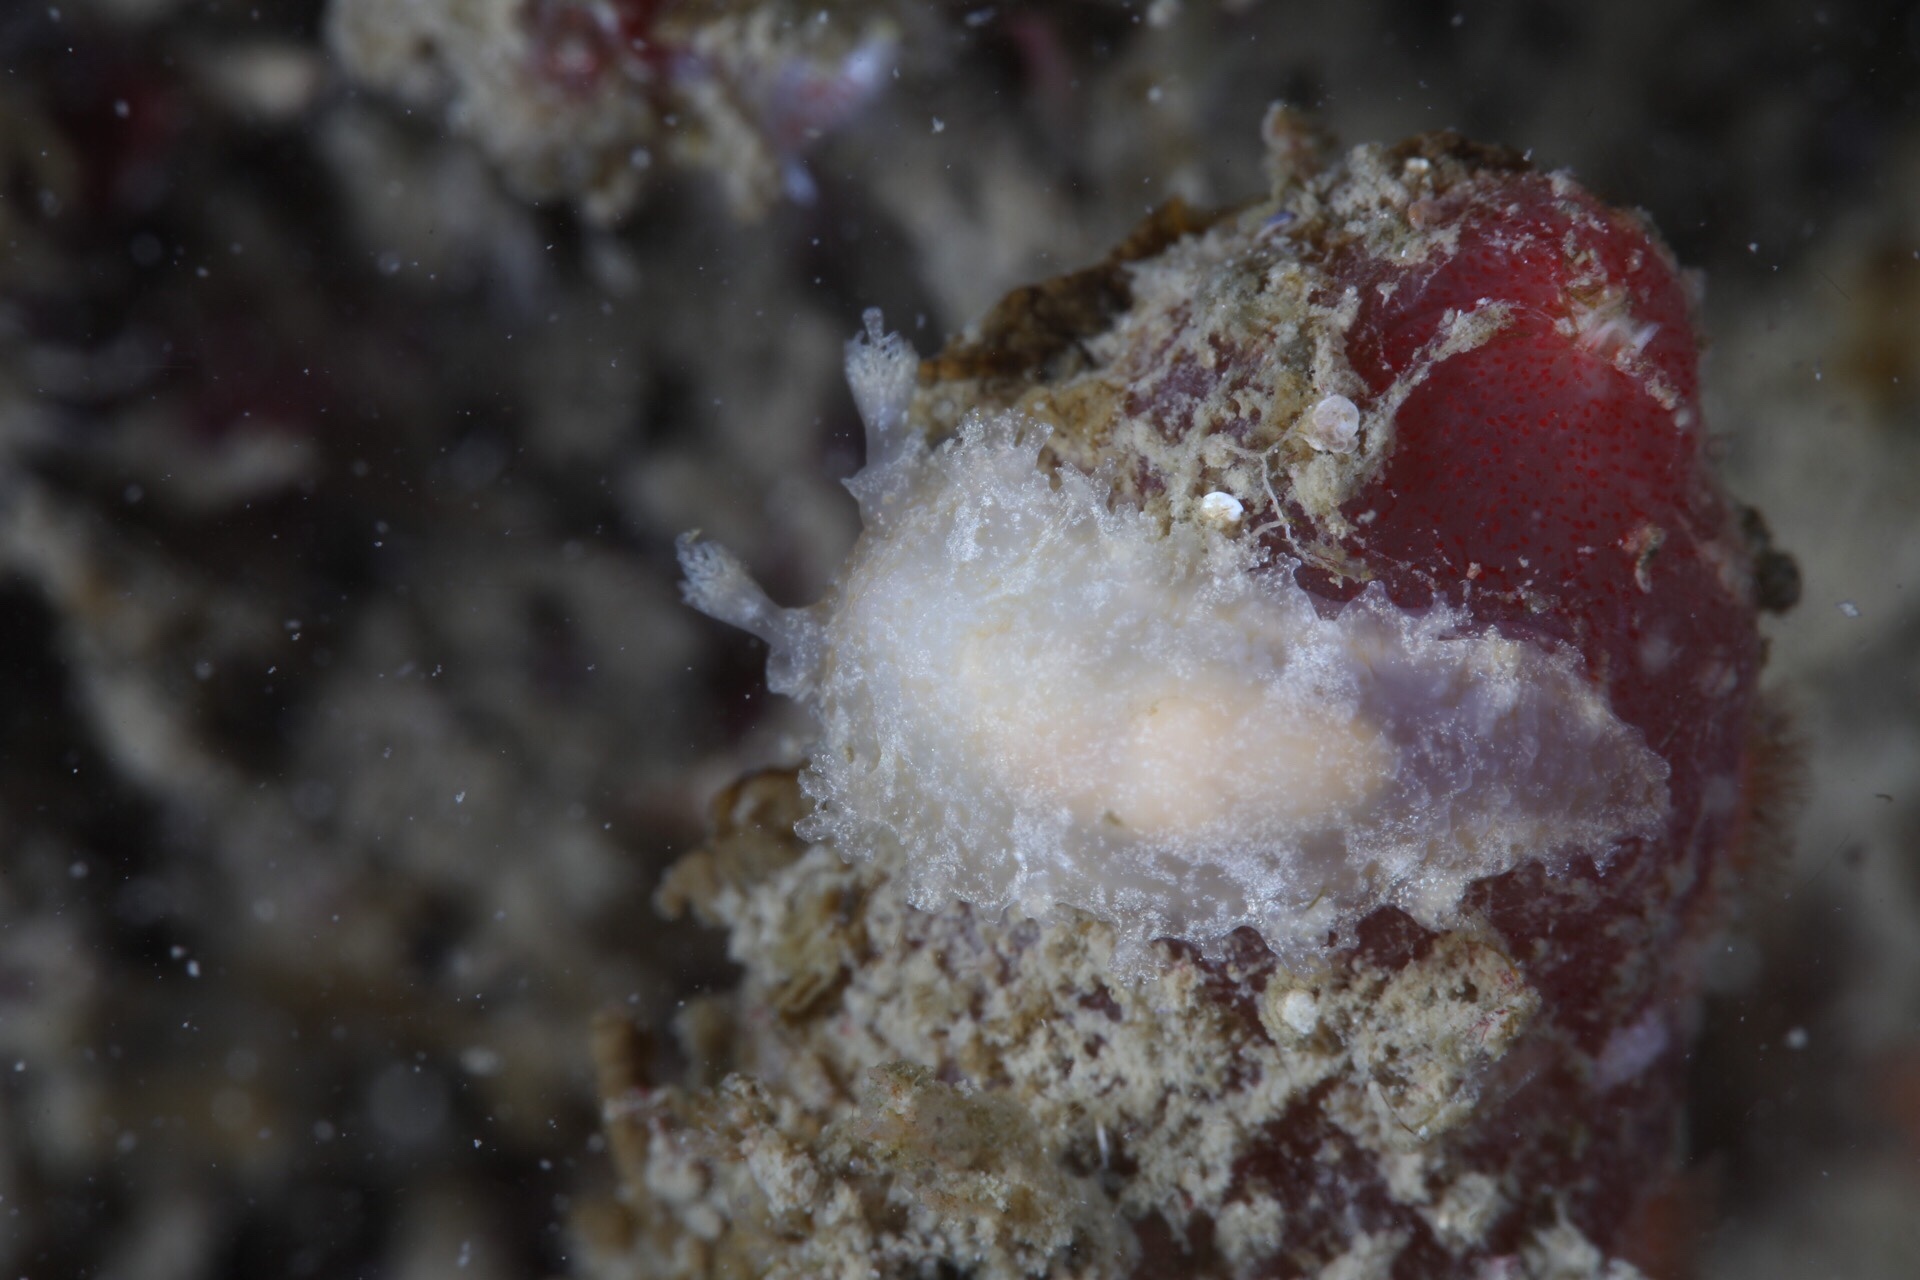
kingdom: Animalia
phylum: Mollusca
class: Gastropoda
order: Nudibranchia
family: Tritoniidae
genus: Tritonia
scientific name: Tritonia hombergii
